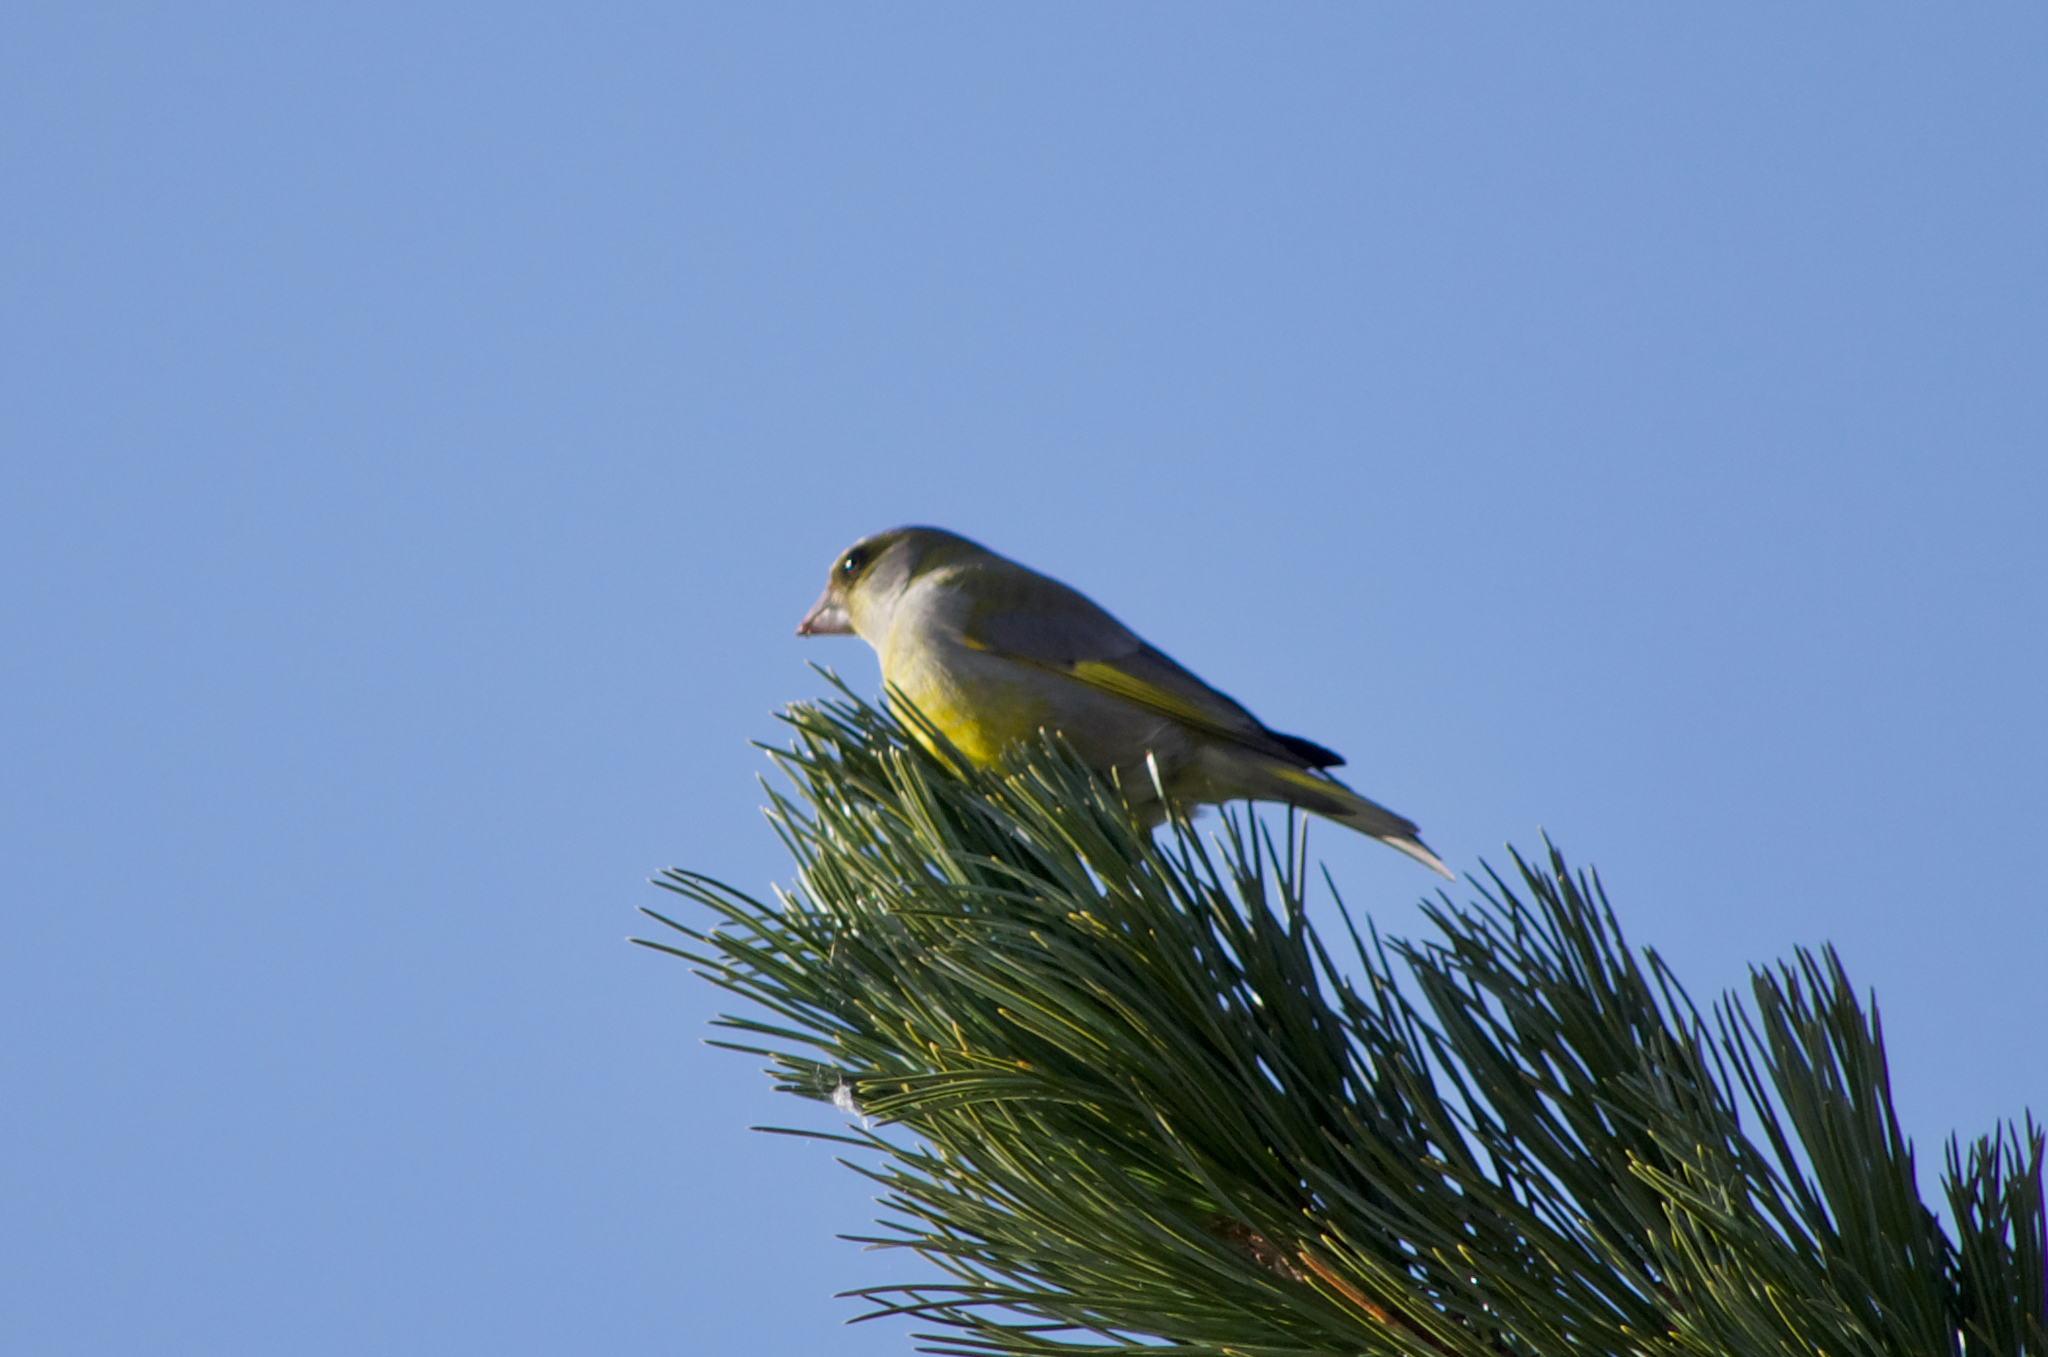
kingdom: Plantae
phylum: Tracheophyta
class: Liliopsida
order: Poales
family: Poaceae
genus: Chloris
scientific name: Chloris chloris
